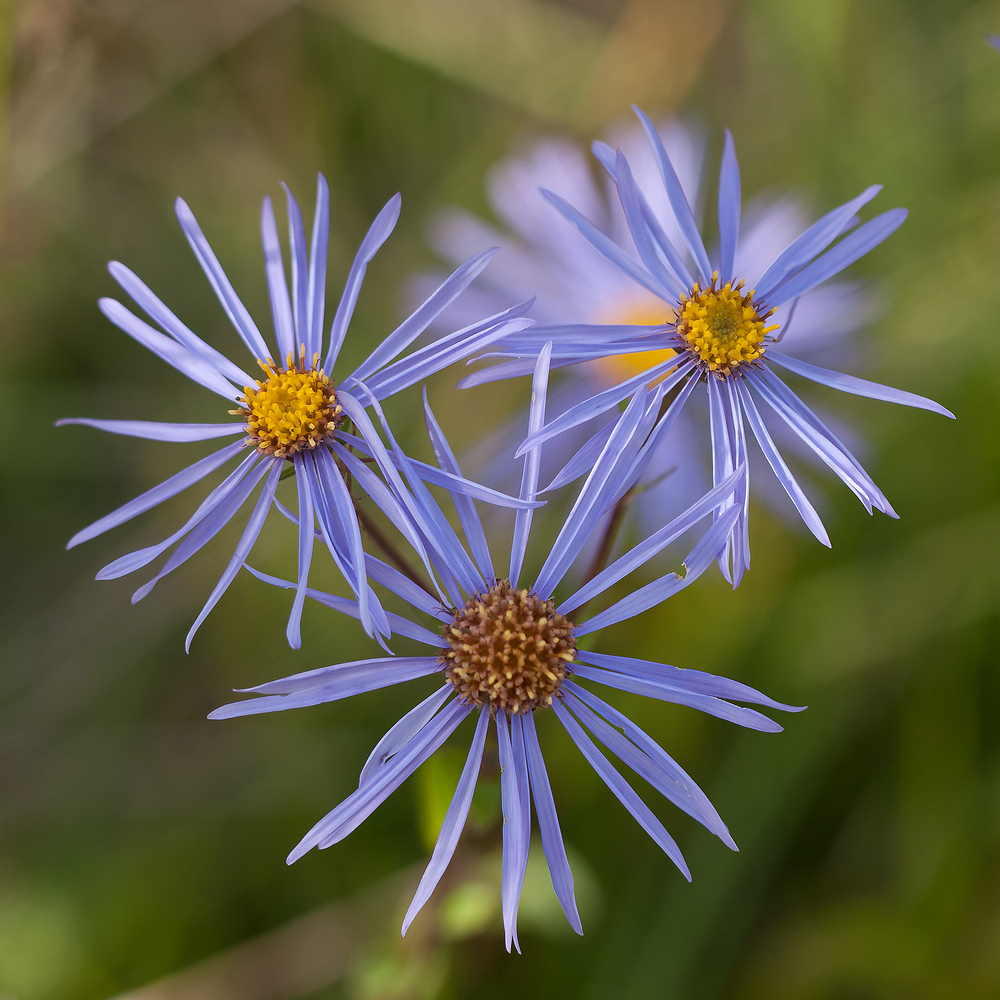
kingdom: Plantae
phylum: Tracheophyta
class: Magnoliopsida
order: Asterales
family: Asteraceae
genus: Aster
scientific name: Aster amellus
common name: European michaelmas daisy
